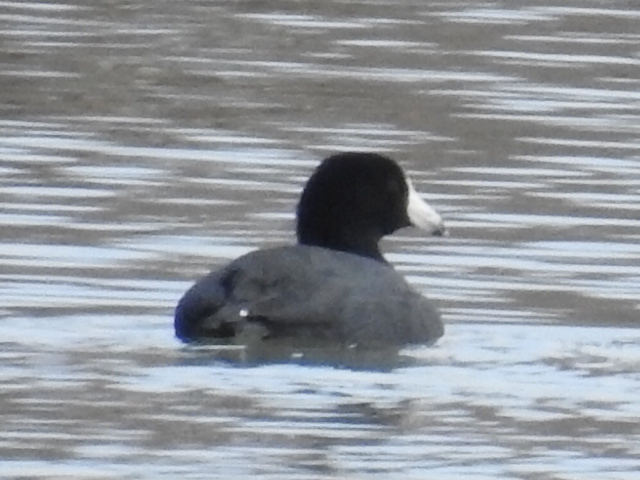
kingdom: Animalia
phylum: Chordata
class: Aves
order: Gruiformes
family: Rallidae
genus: Fulica
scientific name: Fulica americana
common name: American coot
